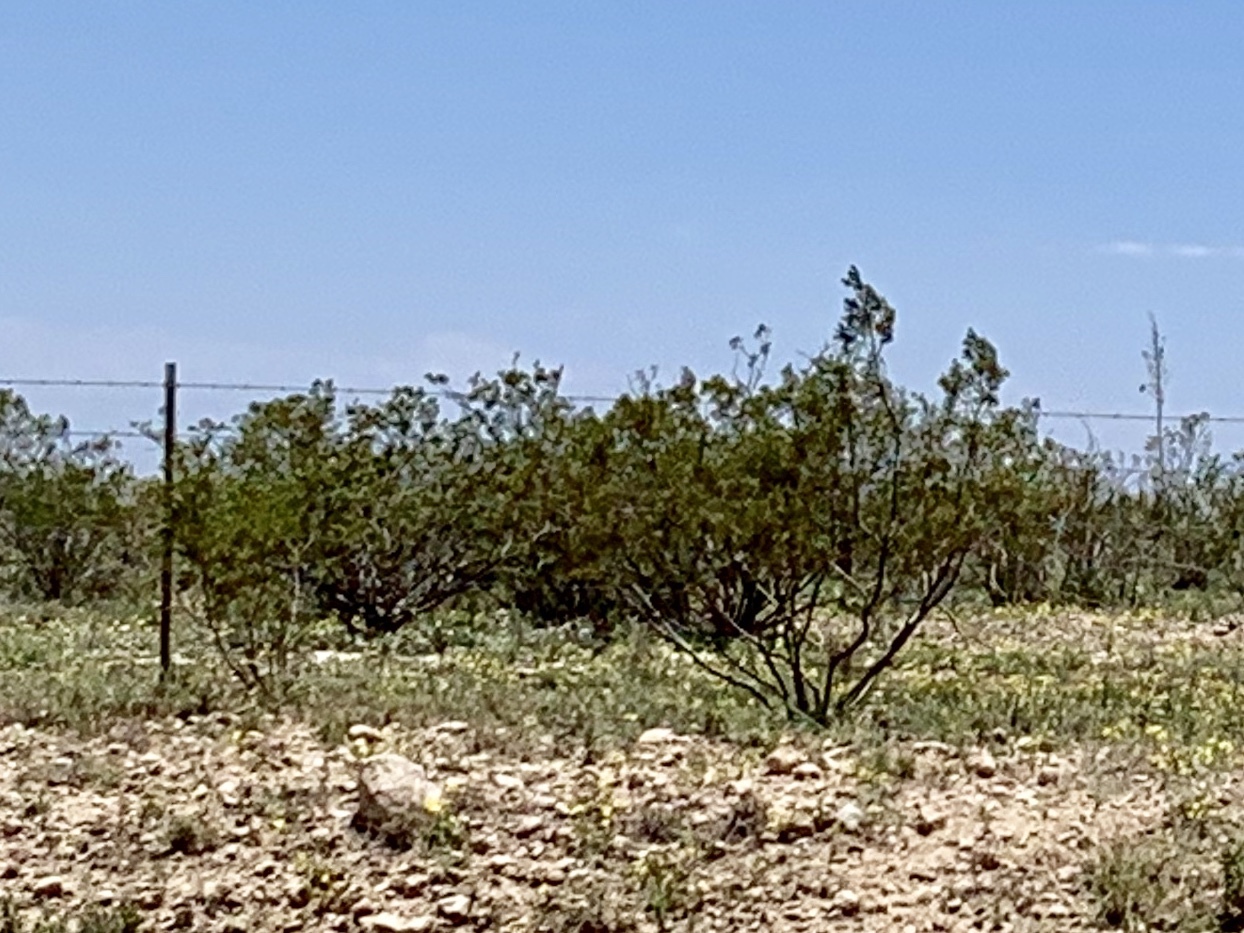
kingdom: Plantae
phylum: Tracheophyta
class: Magnoliopsida
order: Zygophyllales
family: Zygophyllaceae
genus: Larrea
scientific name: Larrea tridentata
